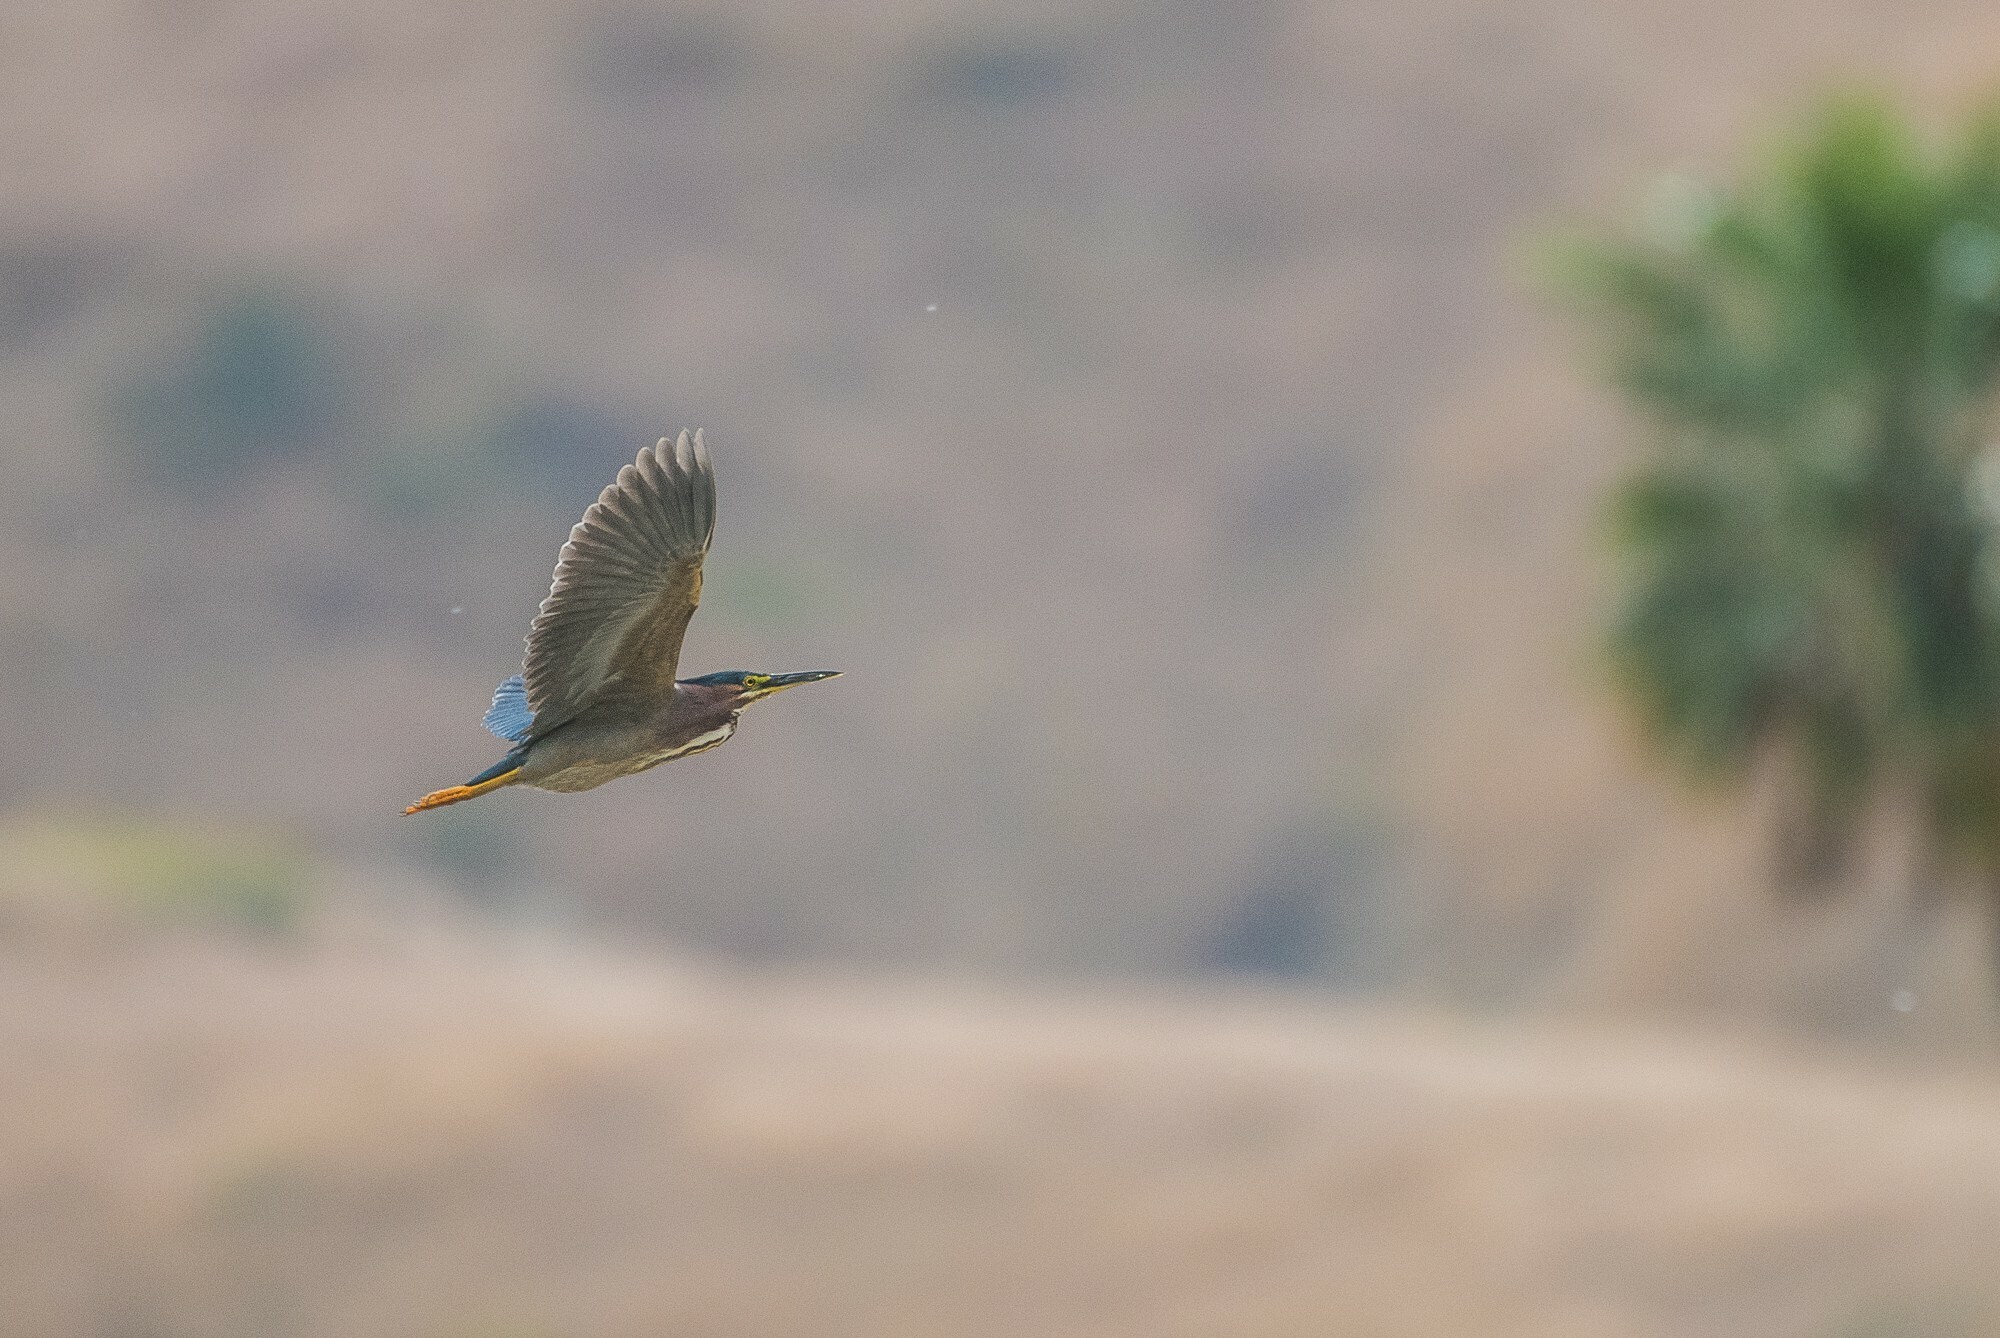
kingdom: Animalia
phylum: Chordata
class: Aves
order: Pelecaniformes
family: Ardeidae
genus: Butorides
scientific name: Butorides virescens
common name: Green heron
